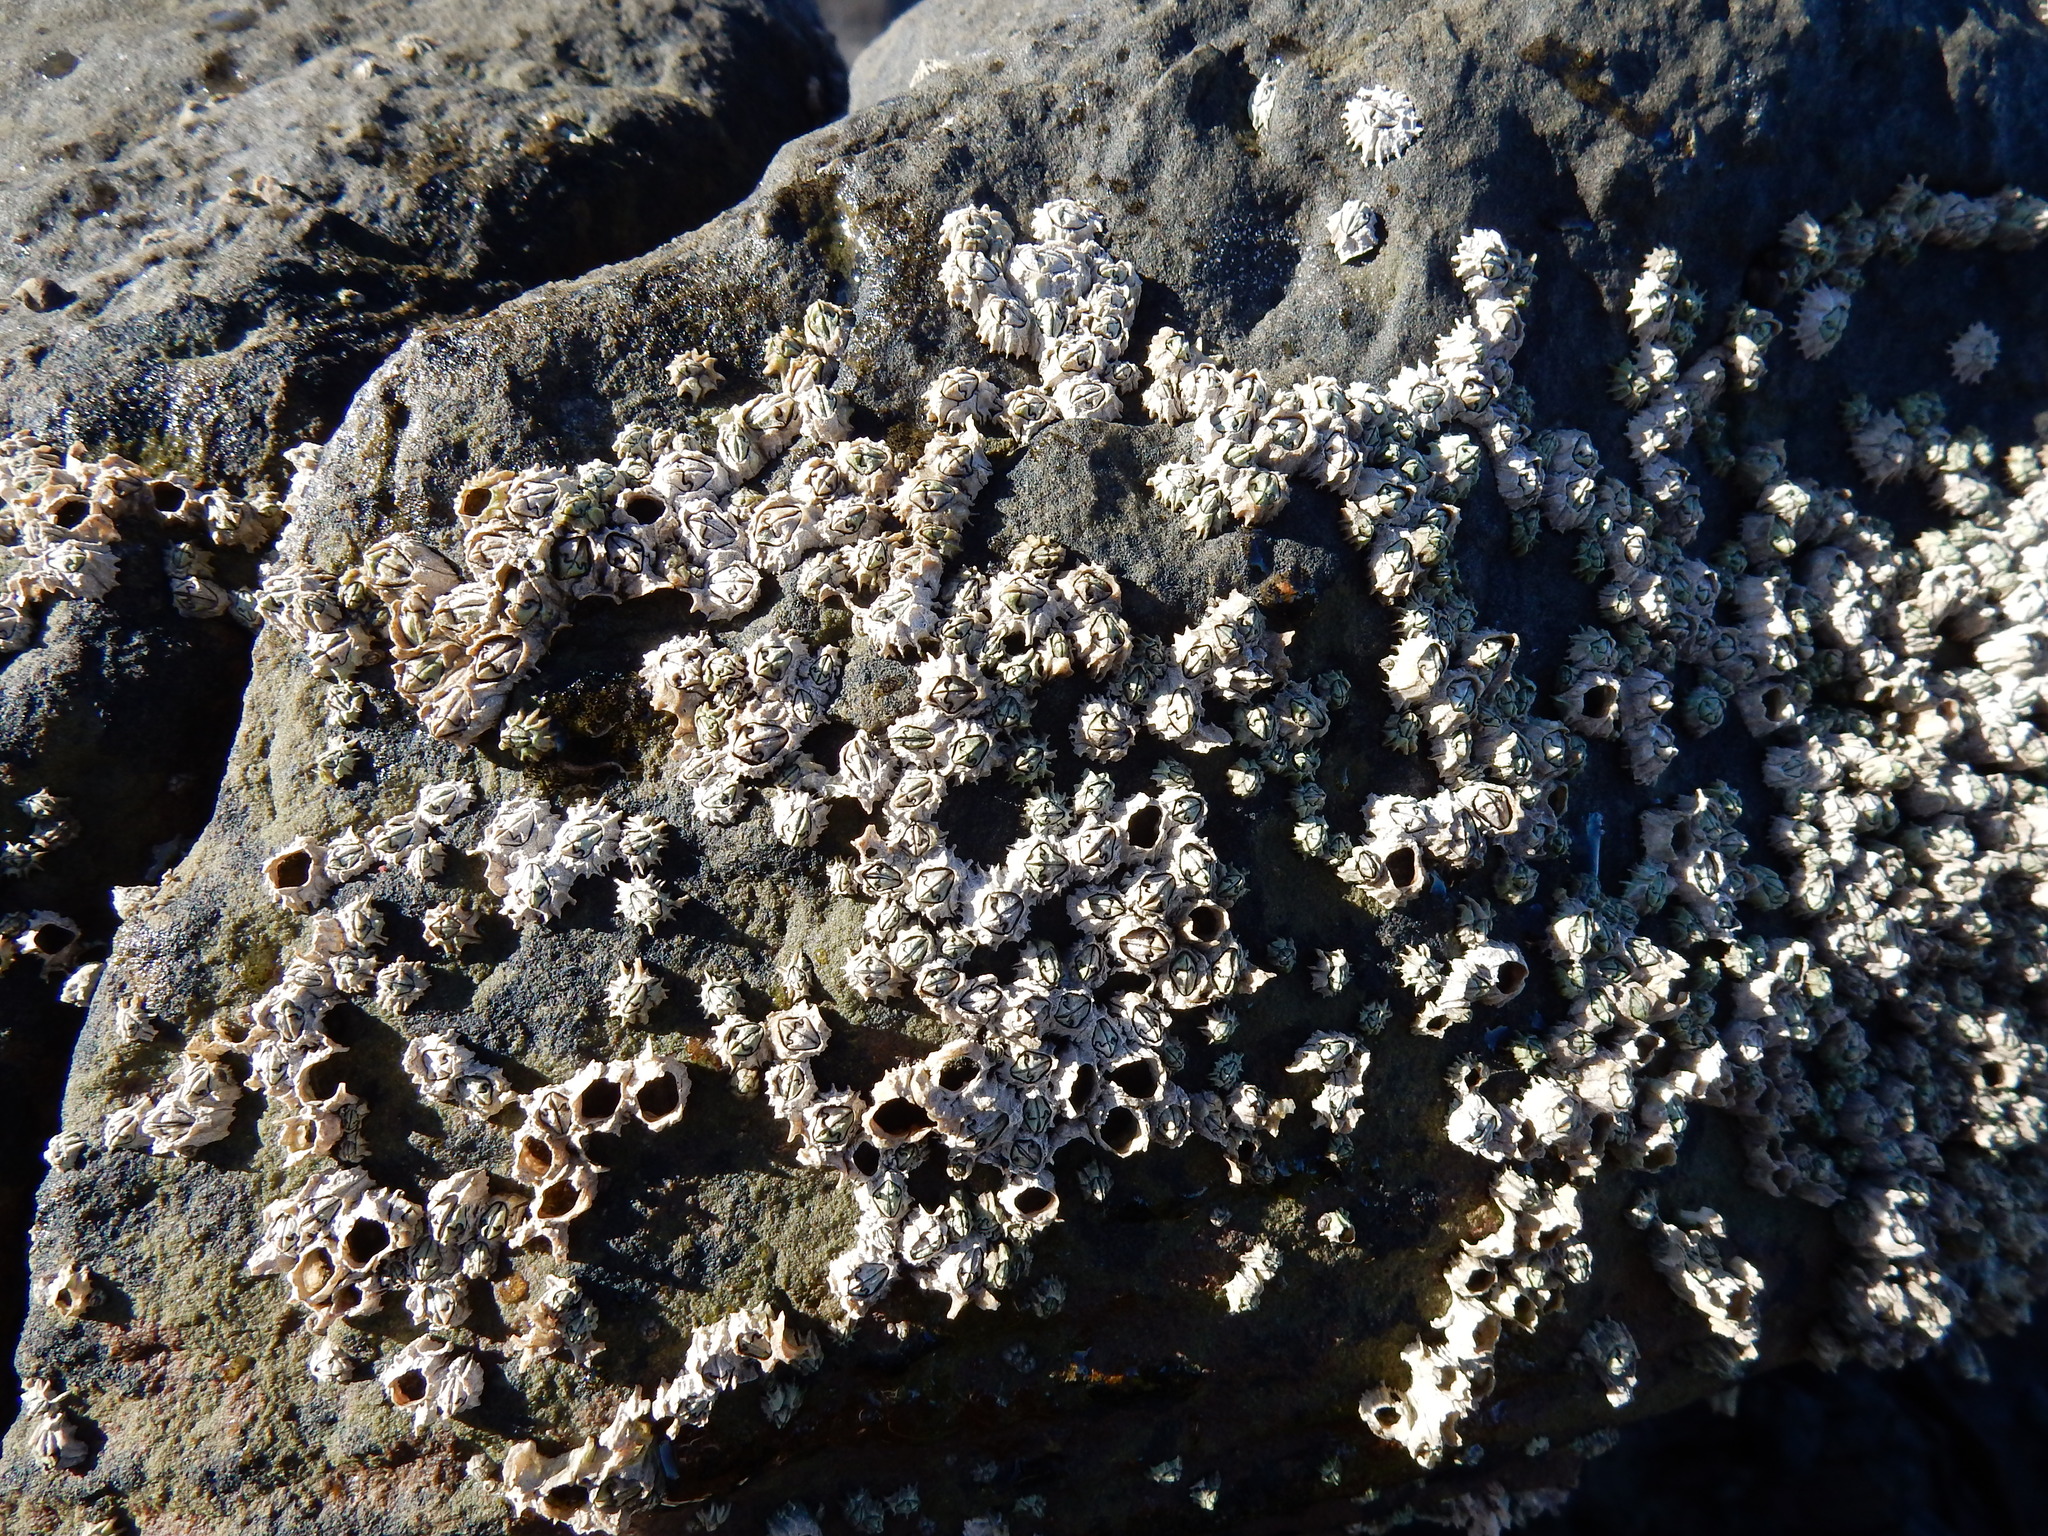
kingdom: Animalia
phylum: Arthropoda
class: Maxillopoda
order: Sessilia
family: Chthamalidae
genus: Chthamalus
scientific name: Chthamalus dentatus
